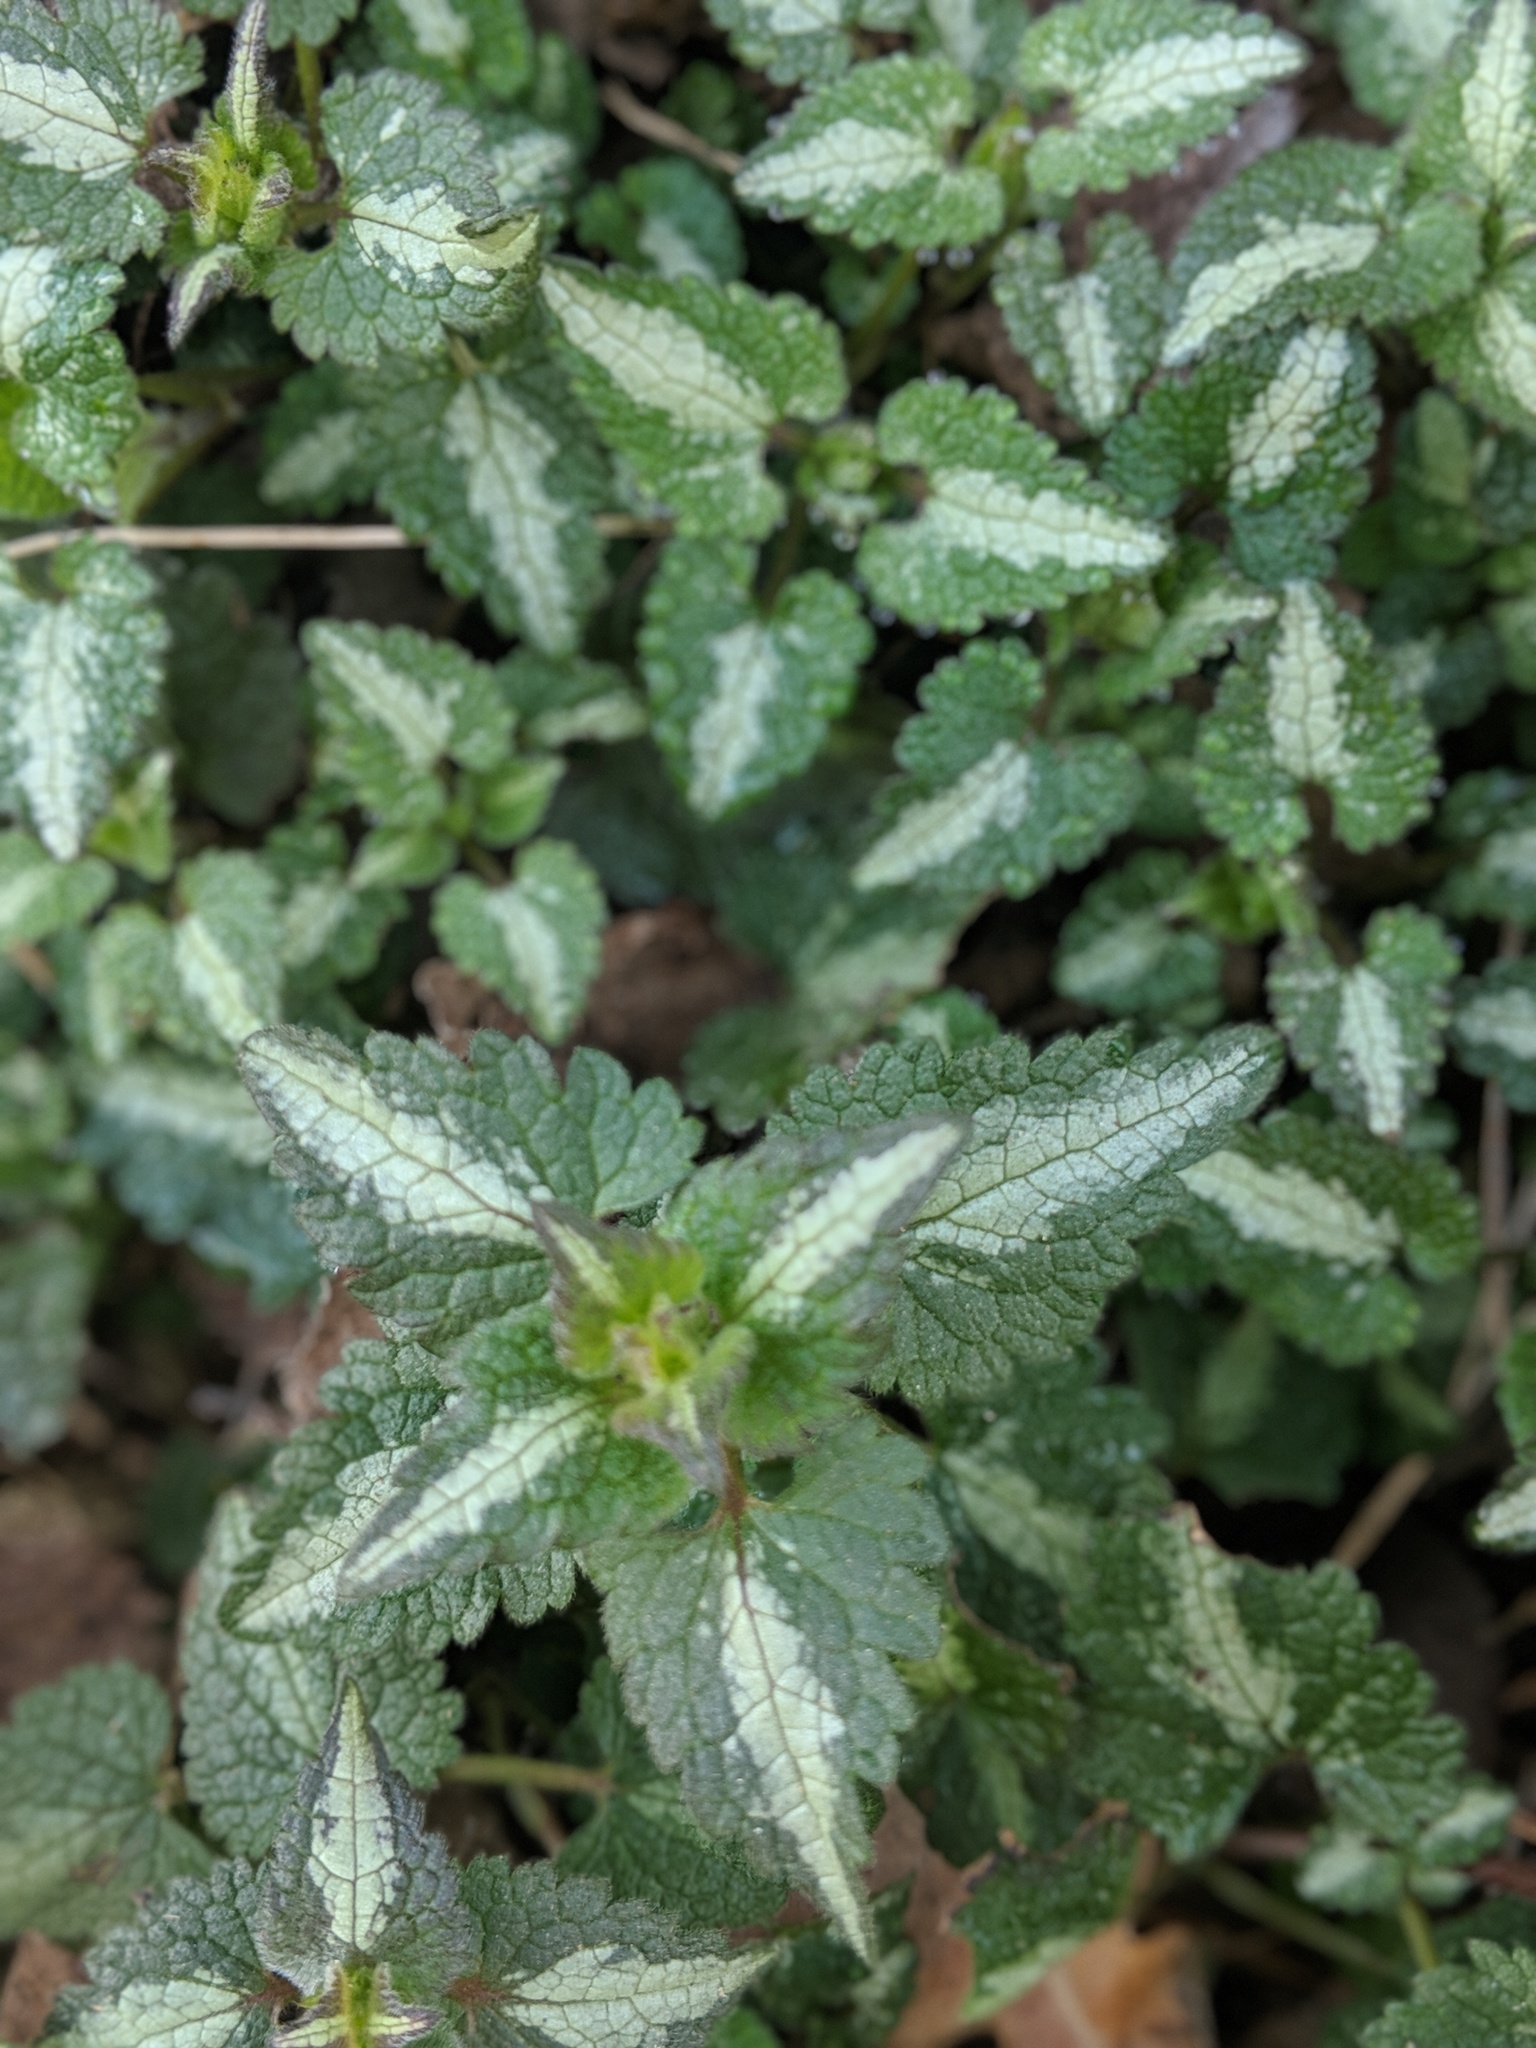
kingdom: Plantae
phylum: Tracheophyta
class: Magnoliopsida
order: Lamiales
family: Lamiaceae
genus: Lamium
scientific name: Lamium maculatum
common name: Spotted dead-nettle
